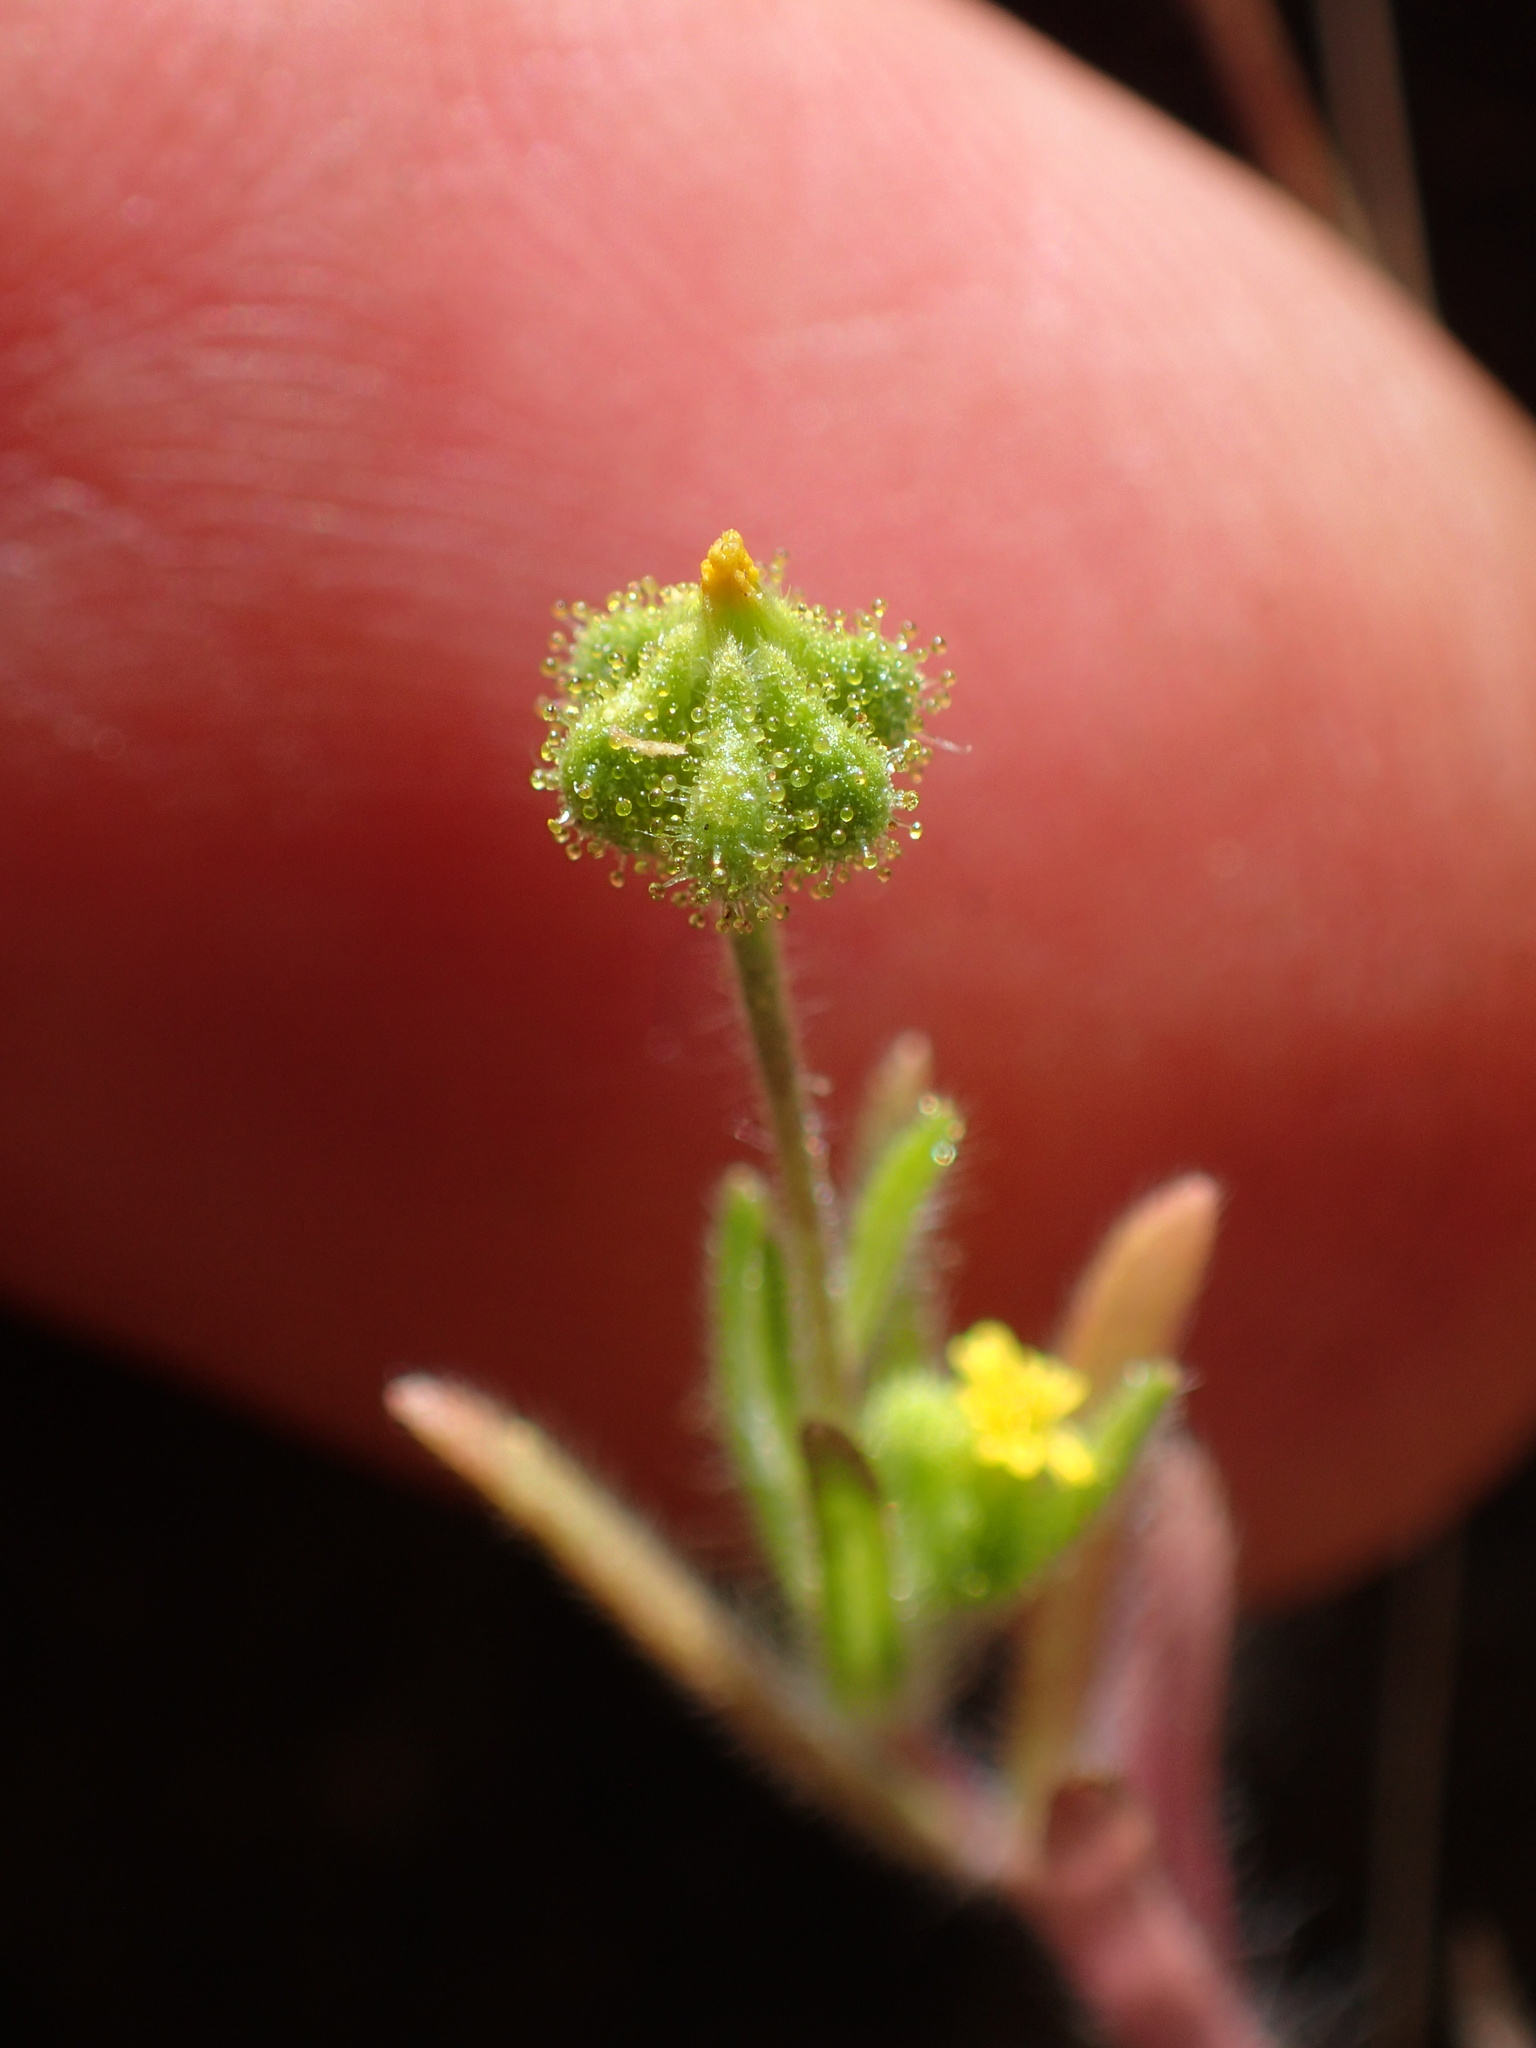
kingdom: Plantae
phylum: Tracheophyta
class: Magnoliopsida
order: Asterales
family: Asteraceae
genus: Madia
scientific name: Madia exigua
